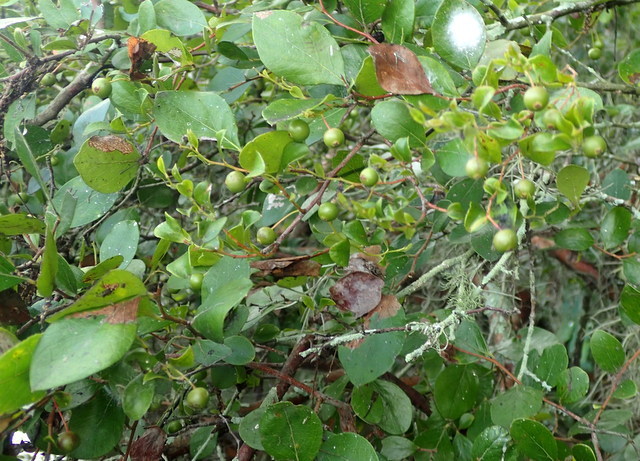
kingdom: Plantae
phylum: Tracheophyta
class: Magnoliopsida
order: Ericales
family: Ericaceae
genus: Vaccinium
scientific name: Vaccinium arboreum
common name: Farkleberry
